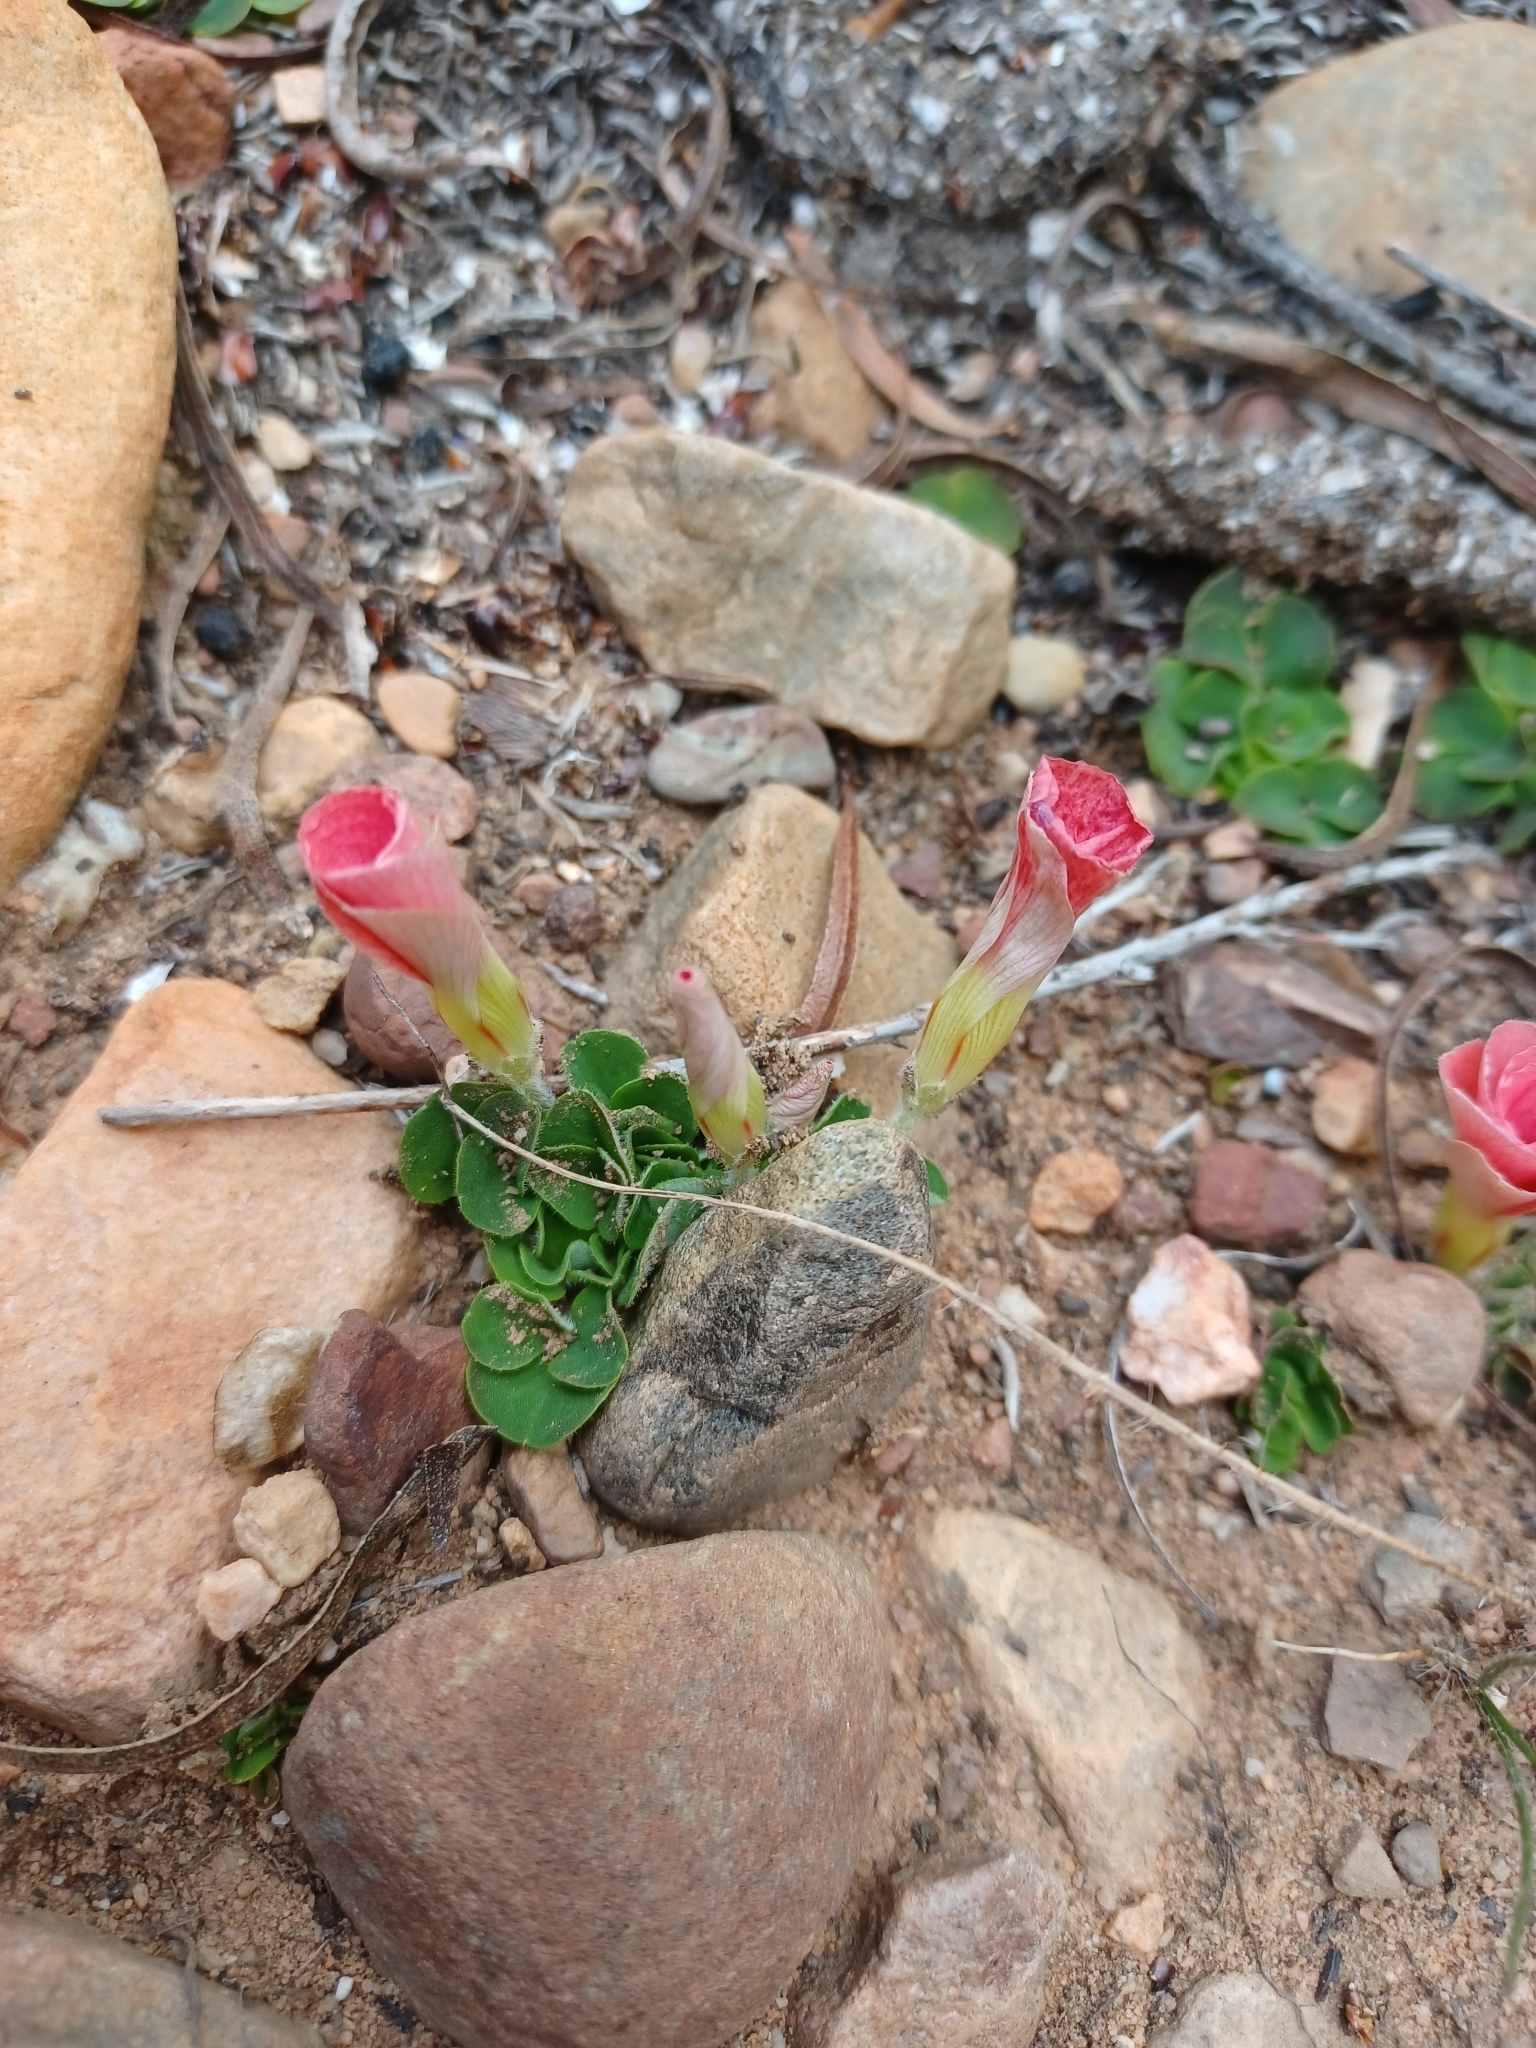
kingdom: Plantae
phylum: Tracheophyta
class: Magnoliopsida
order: Oxalidales
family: Oxalidaceae
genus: Oxalis
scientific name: Oxalis pulchella
